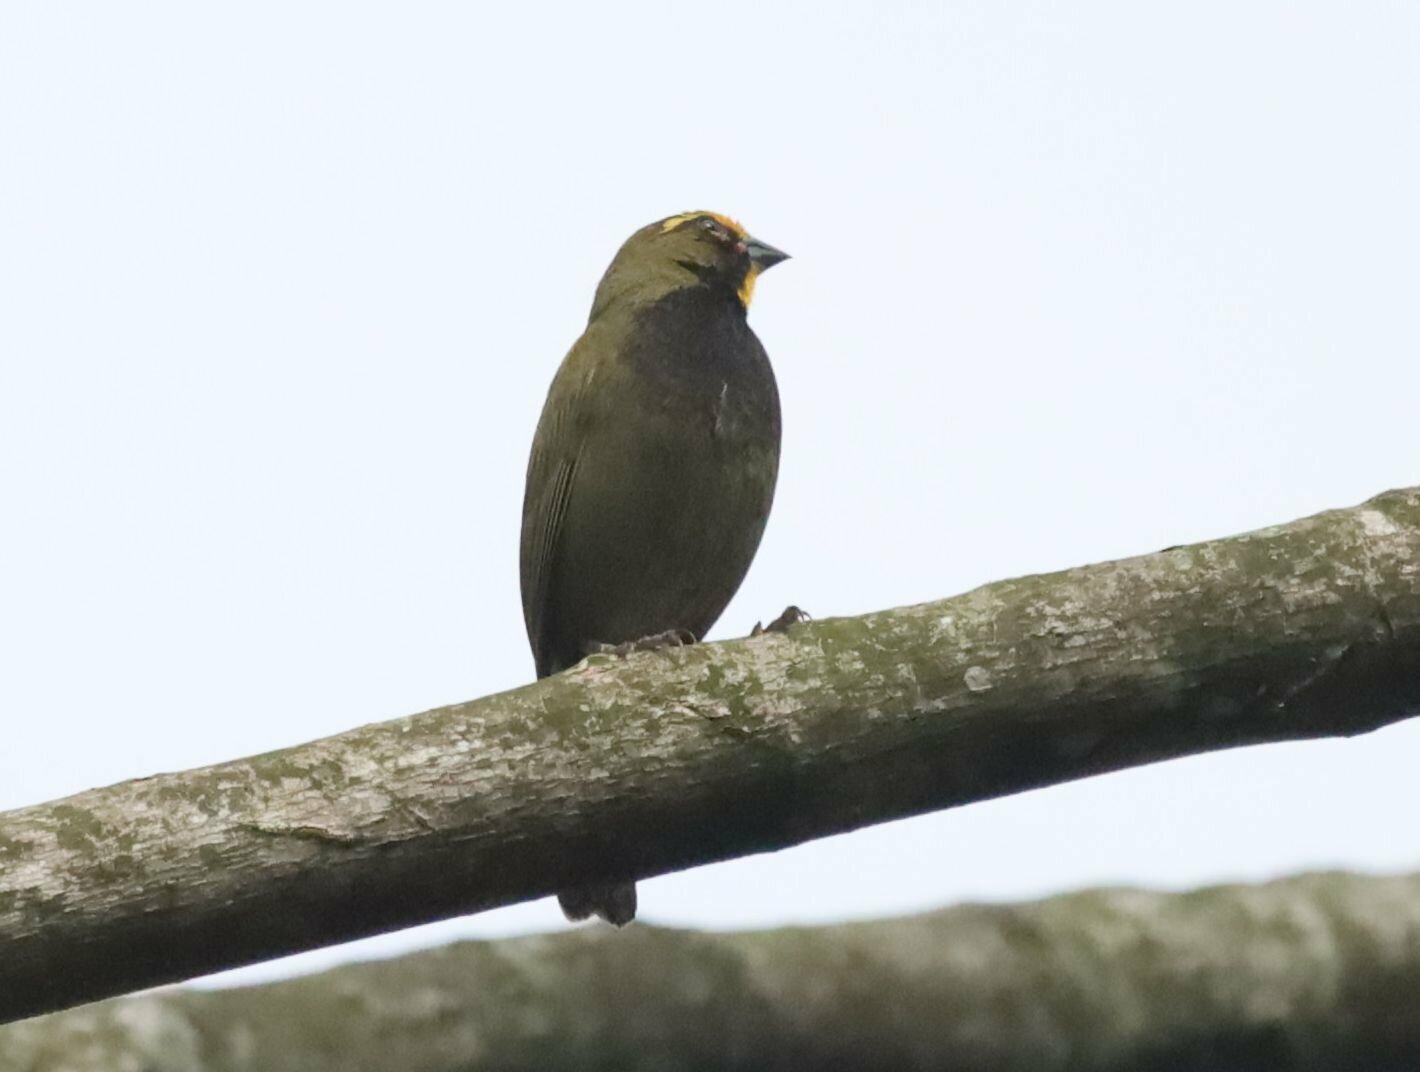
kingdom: Animalia
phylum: Chordata
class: Aves
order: Passeriformes
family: Thraupidae
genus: Tiaris
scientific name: Tiaris olivaceus
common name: Yellow-faced grassquit
